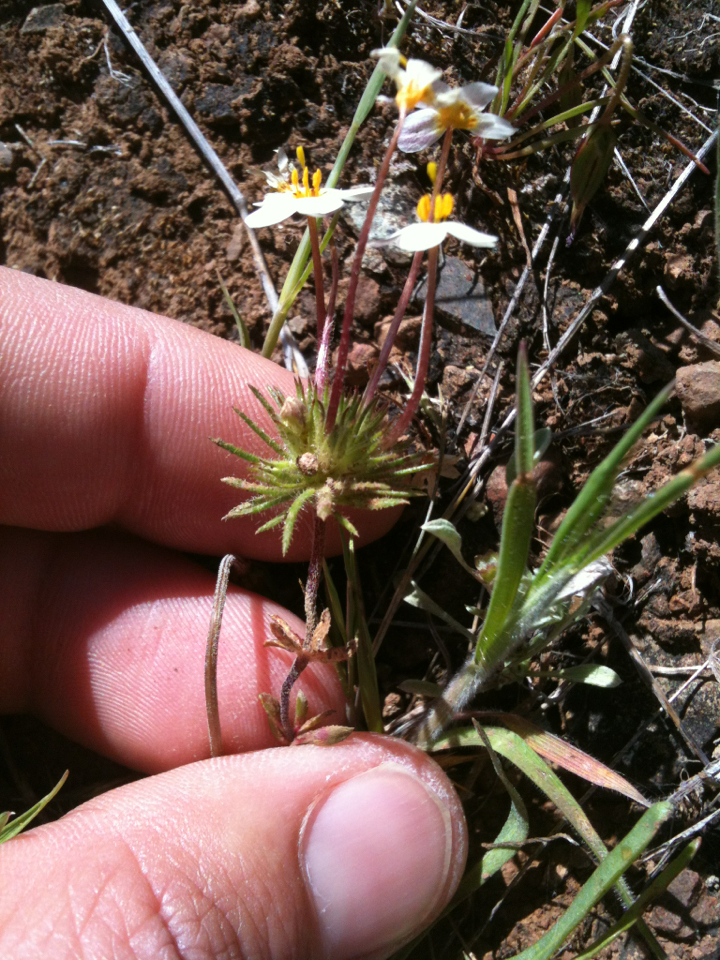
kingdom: Plantae
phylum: Tracheophyta
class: Magnoliopsida
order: Ericales
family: Polemoniaceae
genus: Leptosiphon
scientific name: Leptosiphon parviflorus
